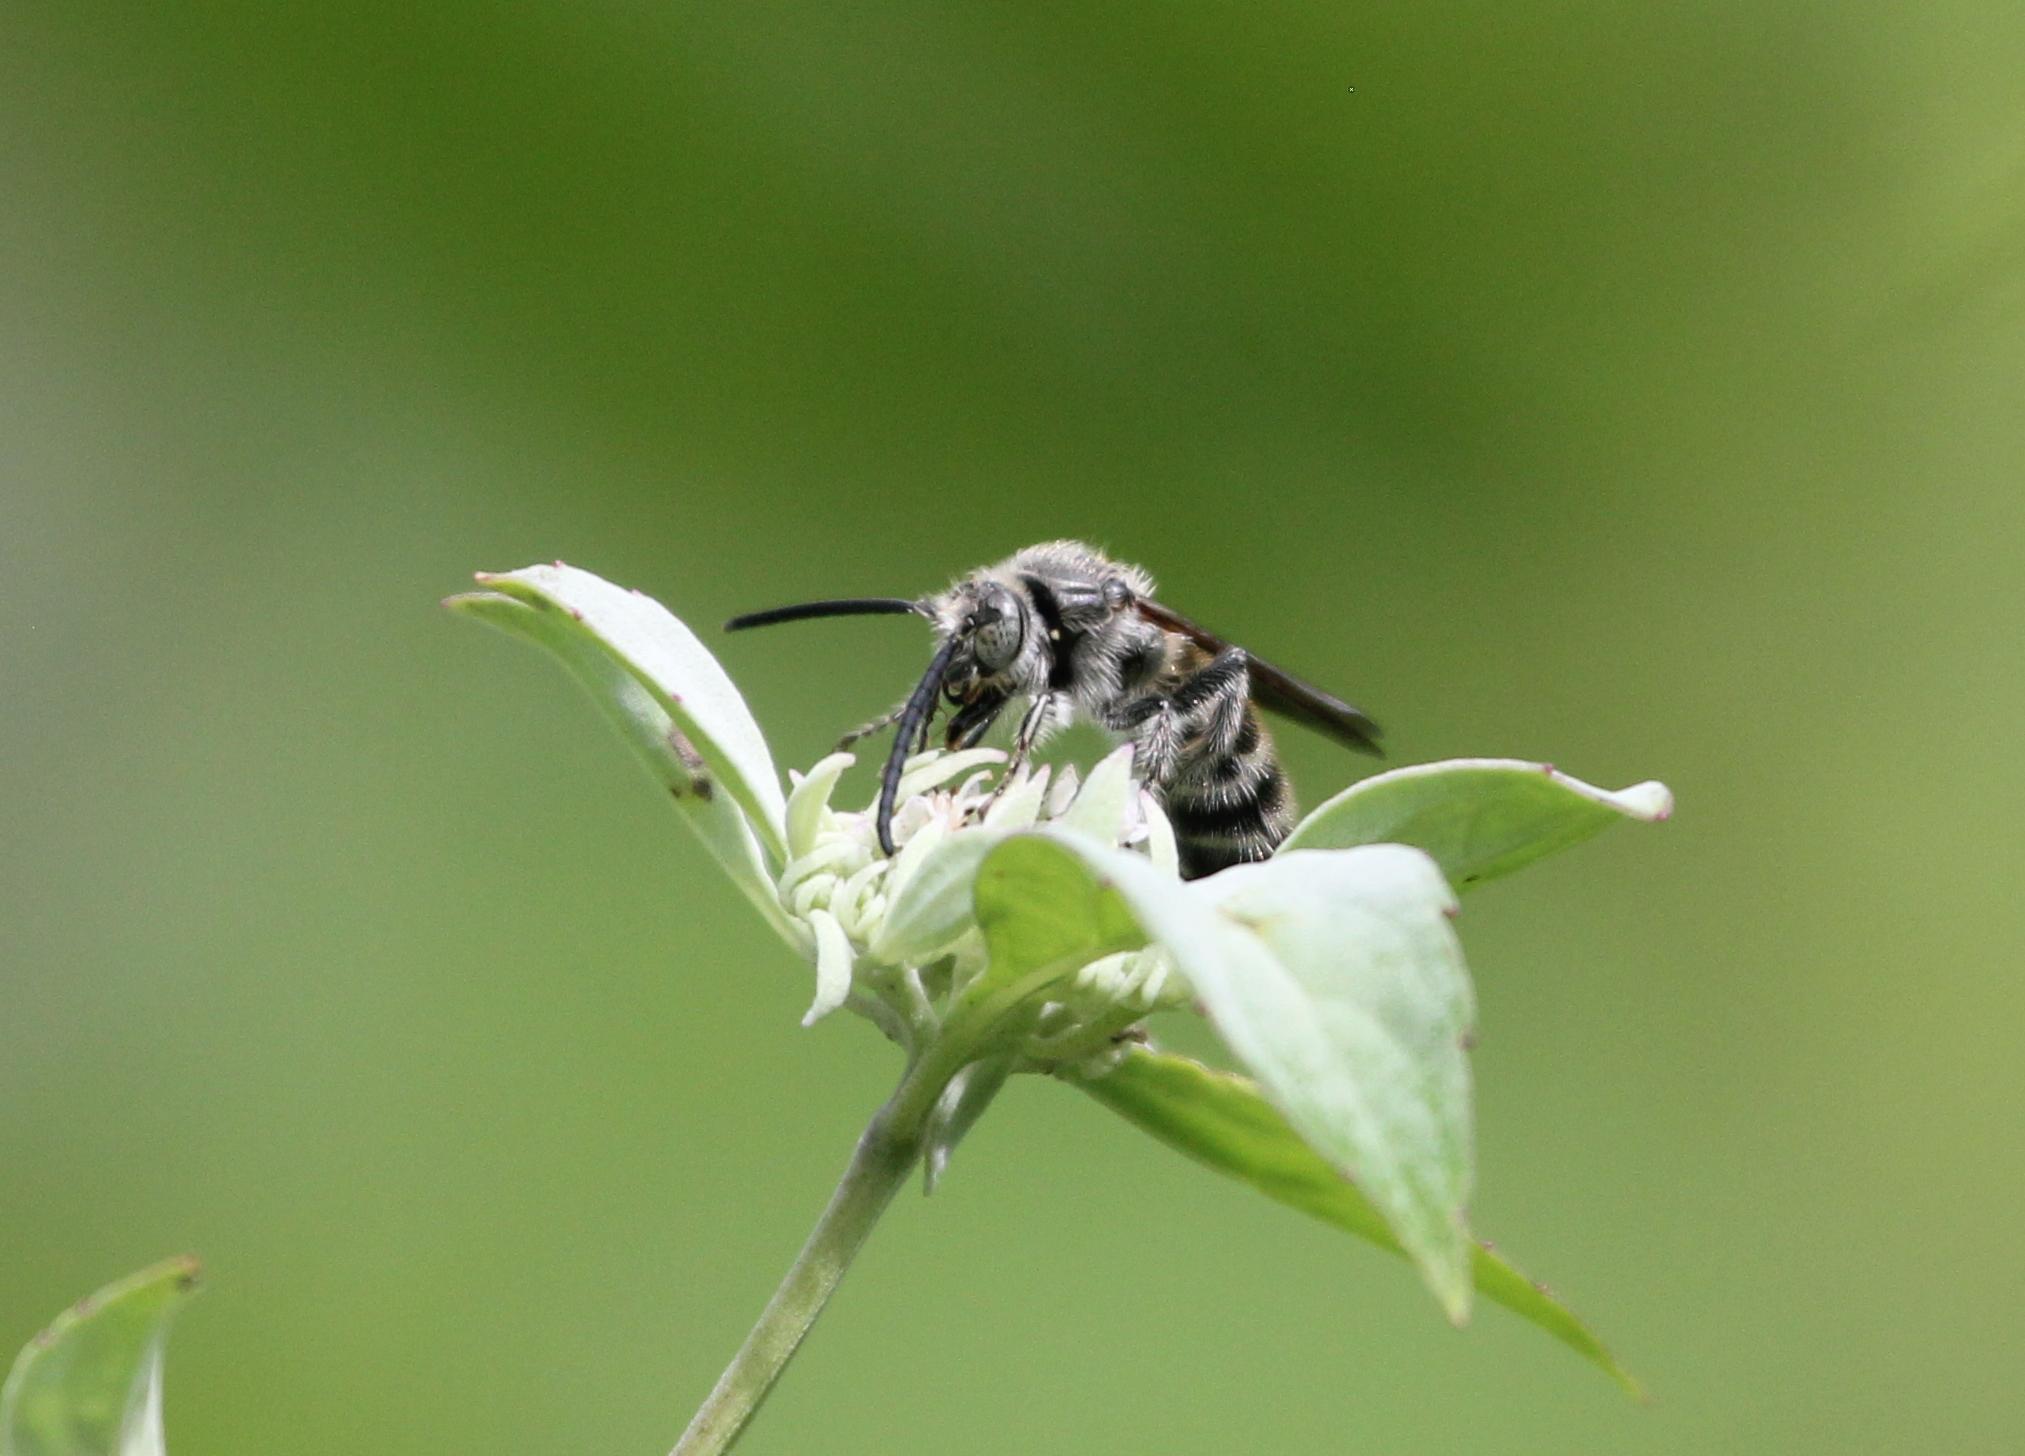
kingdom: Animalia
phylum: Arthropoda
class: Insecta
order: Hymenoptera
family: Scoliidae
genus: Dielis
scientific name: Dielis
